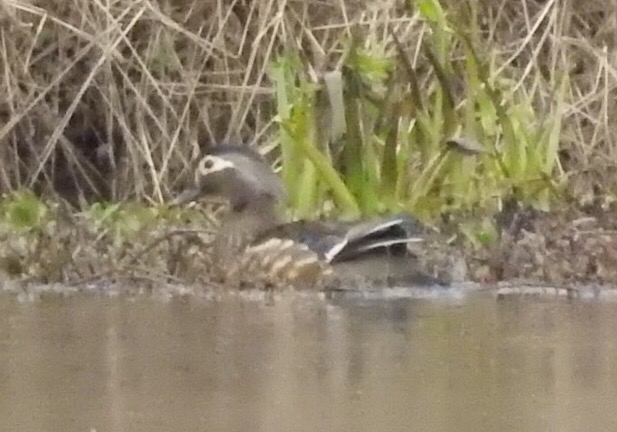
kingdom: Animalia
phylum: Chordata
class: Aves
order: Anseriformes
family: Anatidae
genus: Aix
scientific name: Aix sponsa
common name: Wood duck
